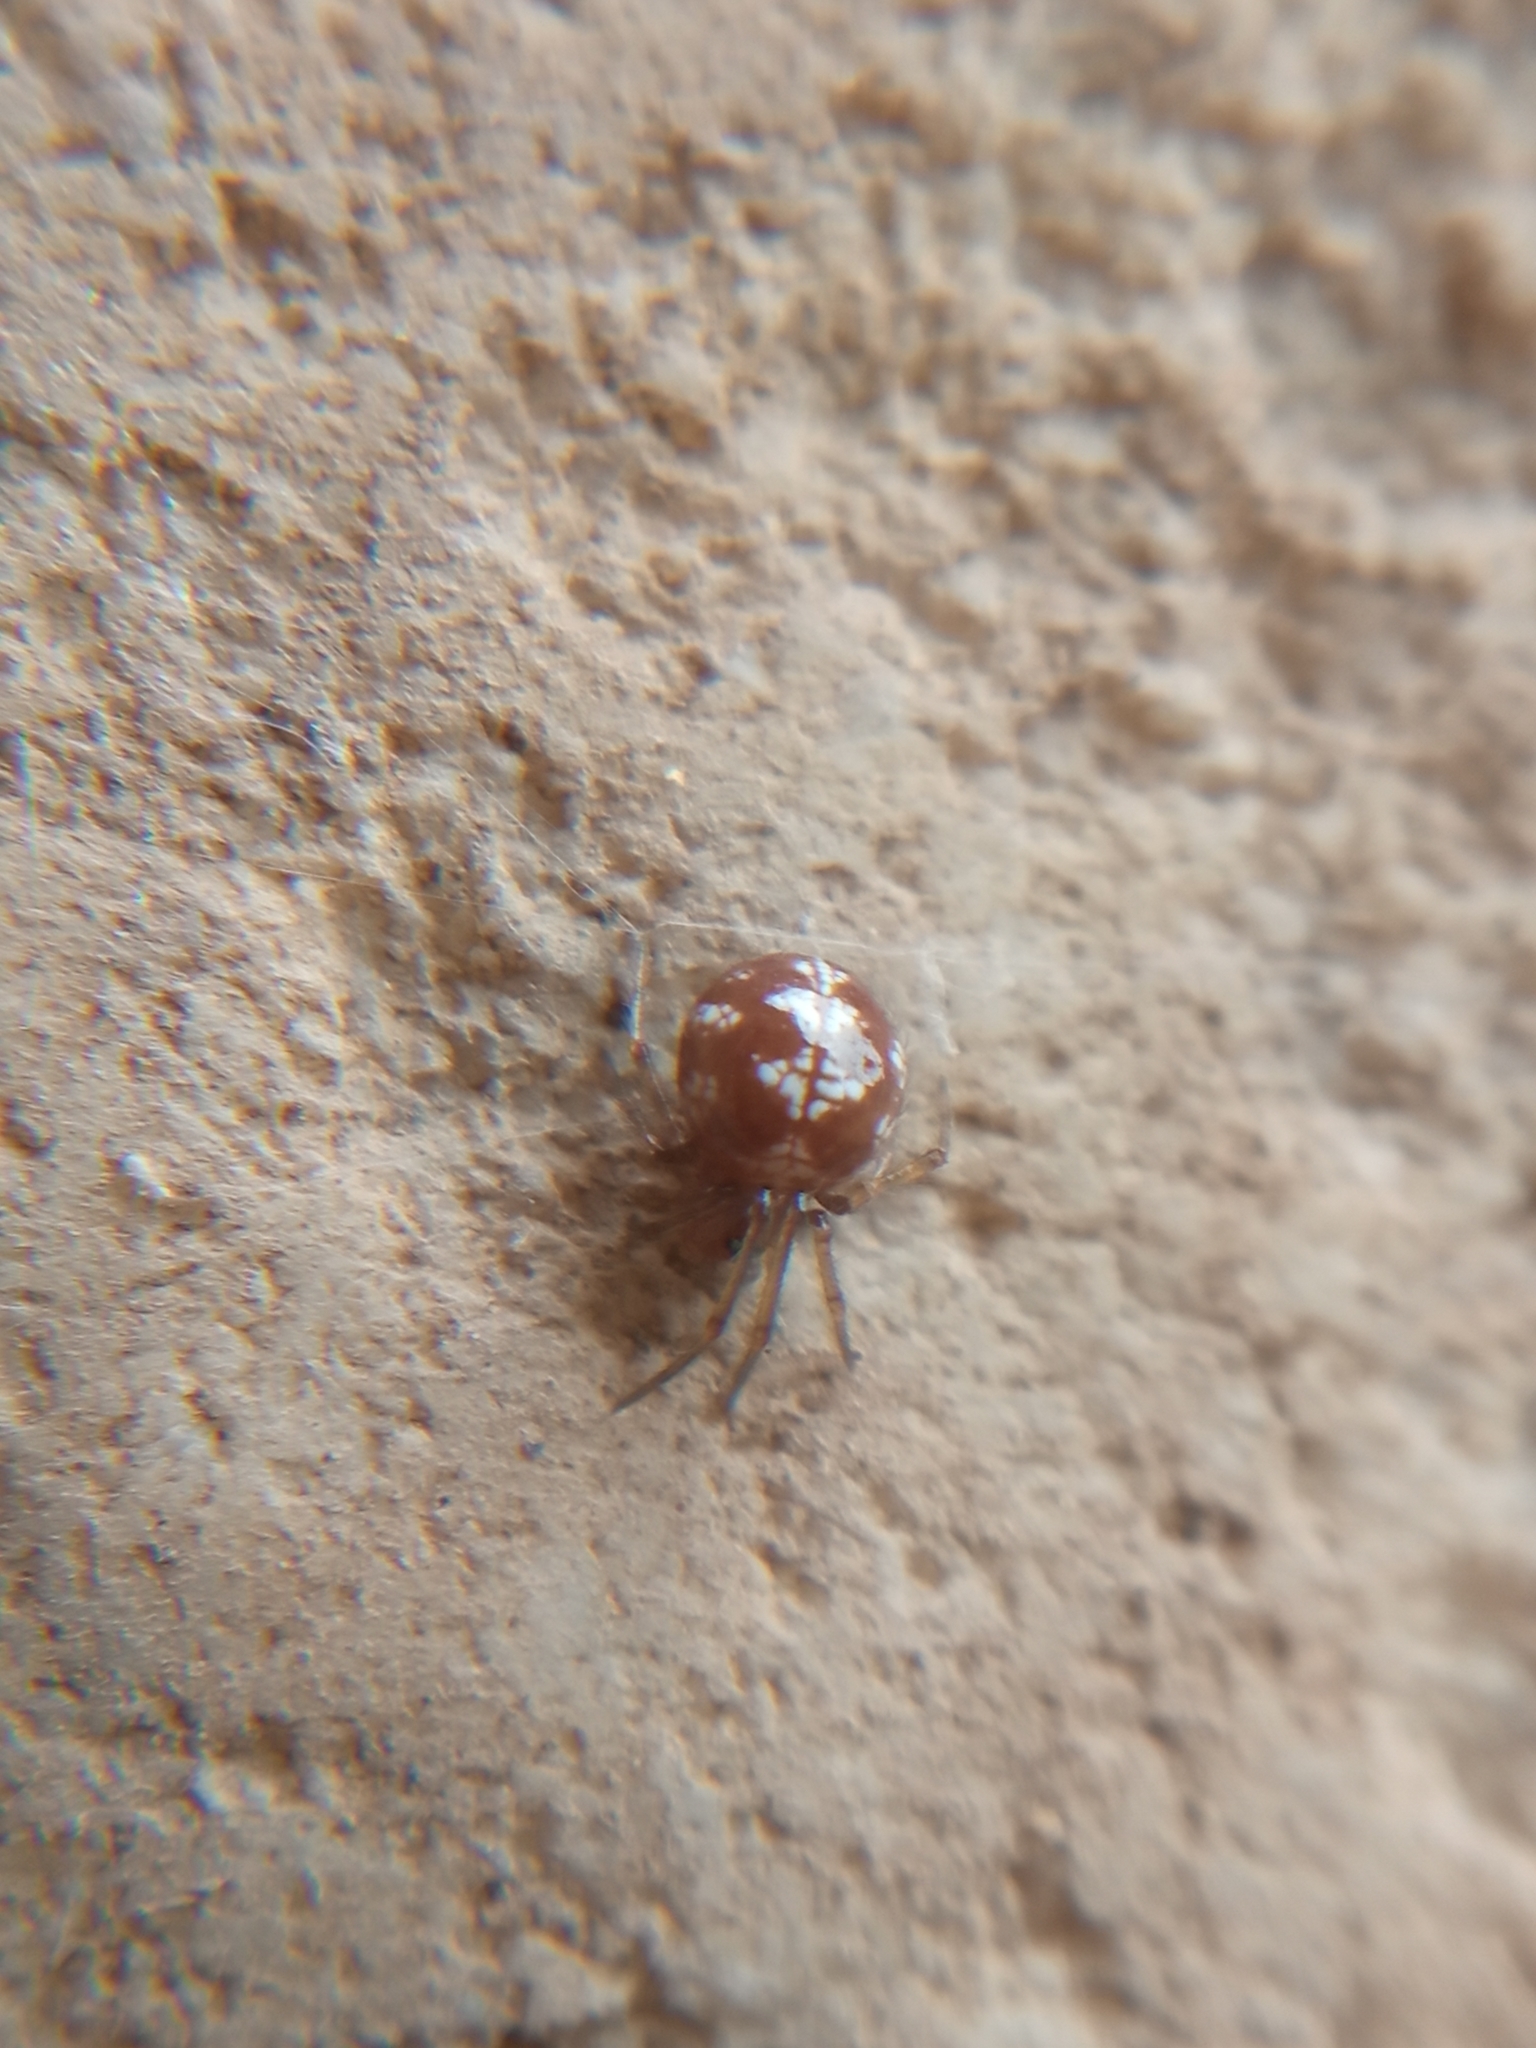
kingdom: Animalia
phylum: Arthropoda
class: Arachnida
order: Araneae
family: Theridiidae
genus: Steatoda
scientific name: Steatoda triangulosa
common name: Triangulate bud spider
